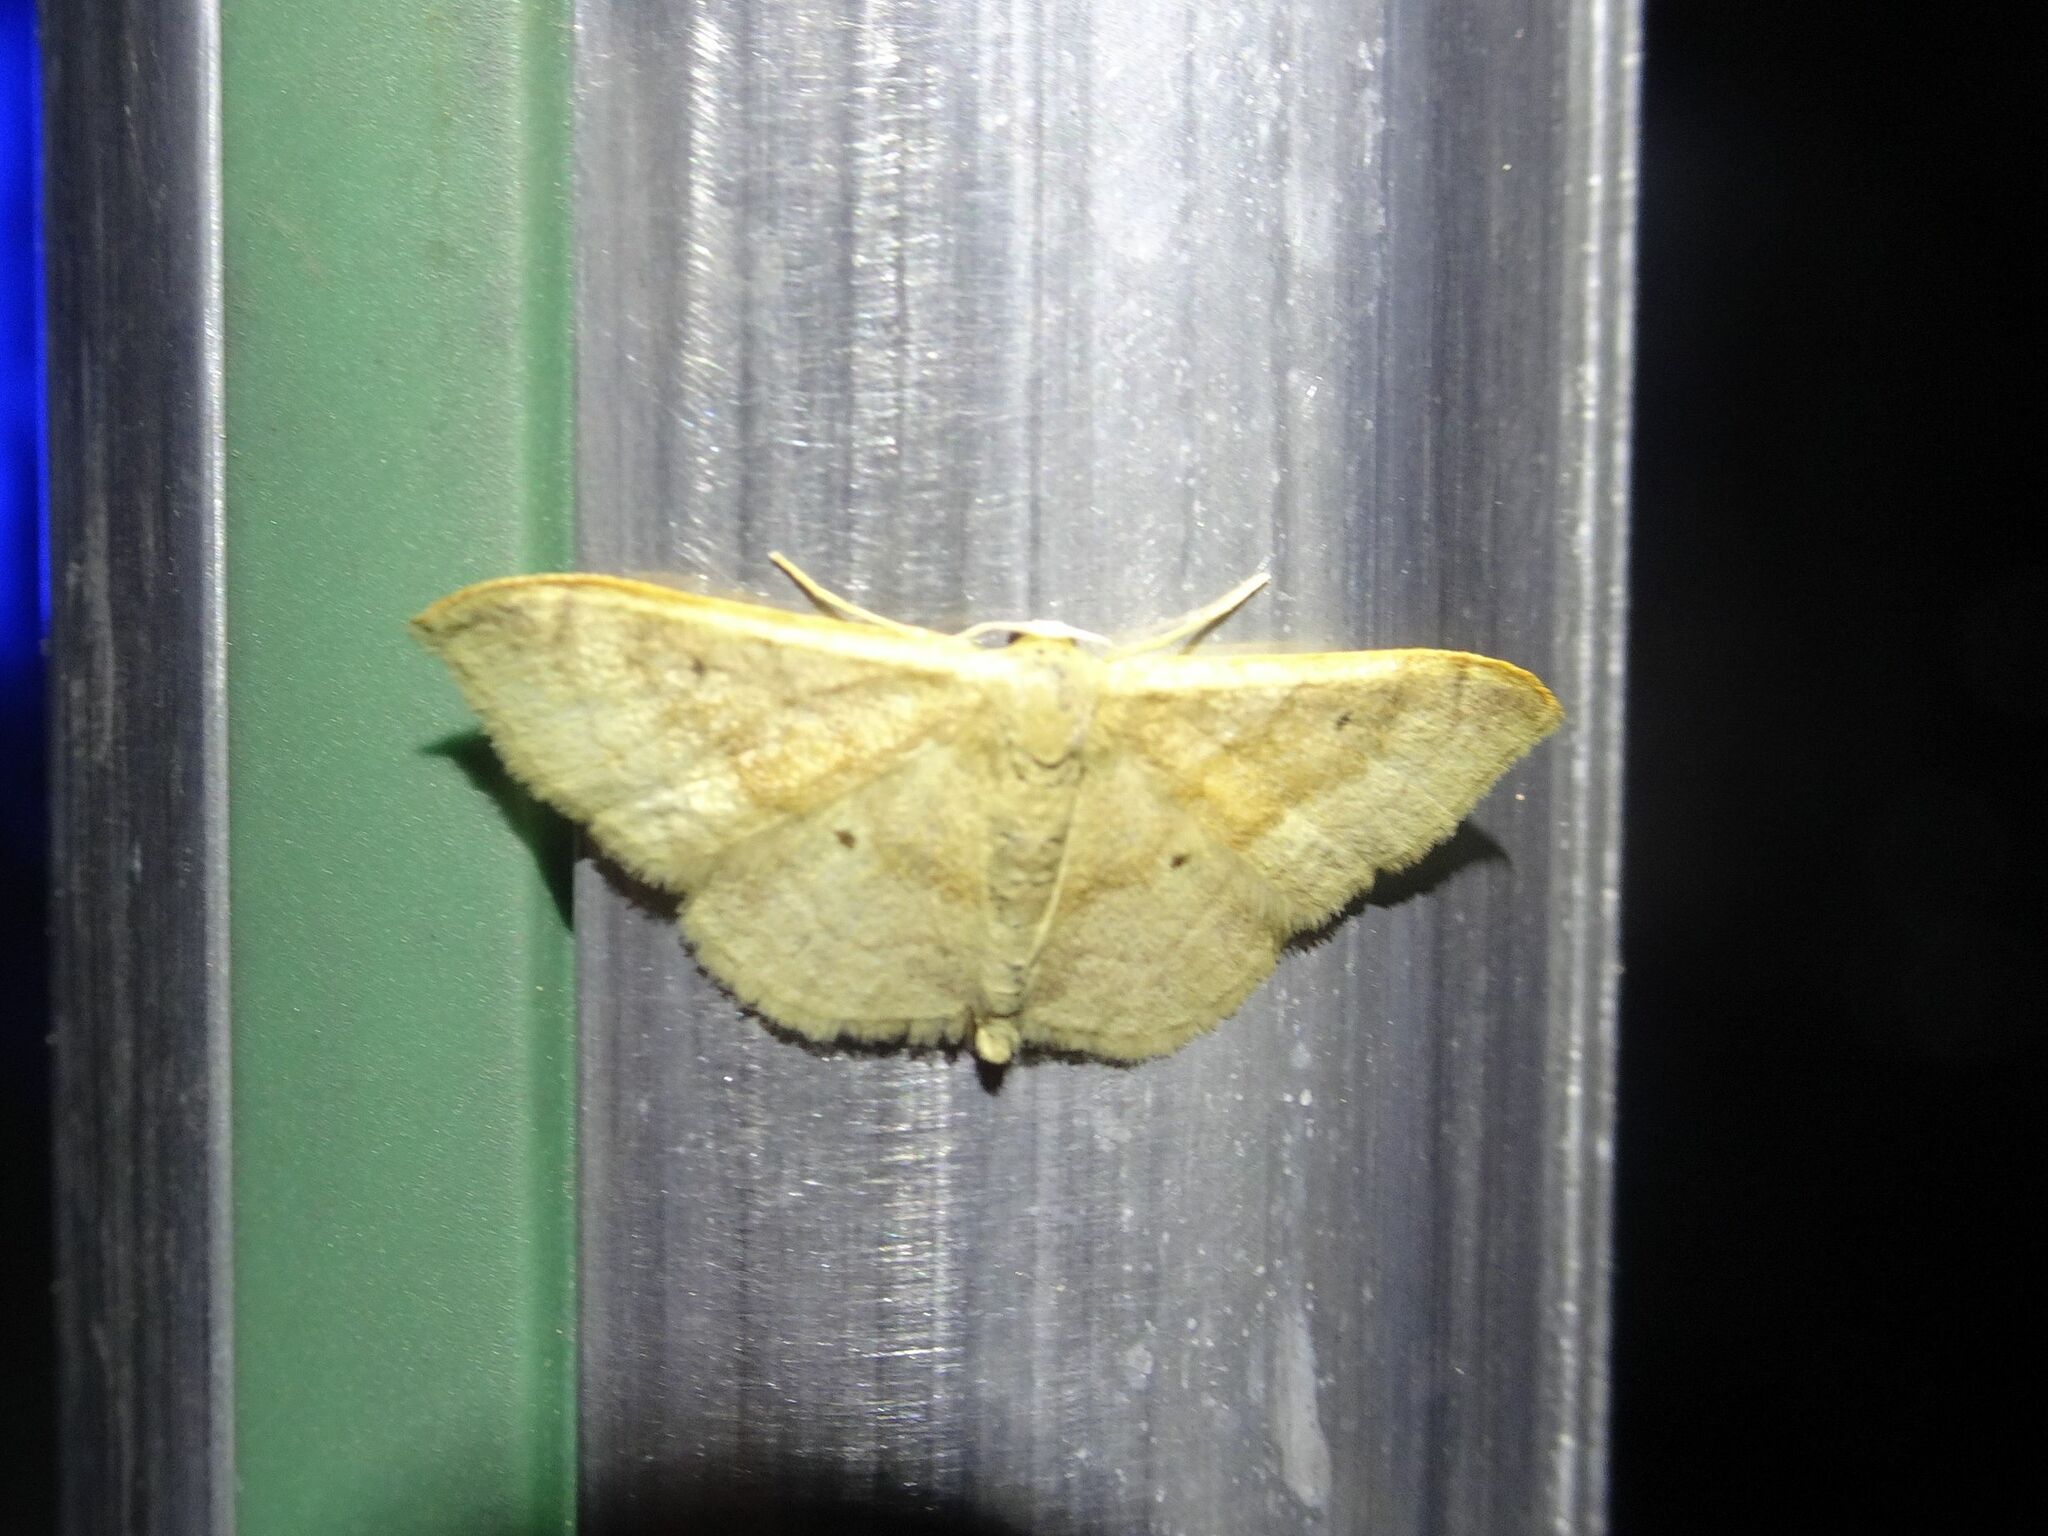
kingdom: Animalia
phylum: Arthropoda
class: Insecta
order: Lepidoptera
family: Geometridae
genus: Idaea
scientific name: Idaea degeneraria
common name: Portland ribbon wave
